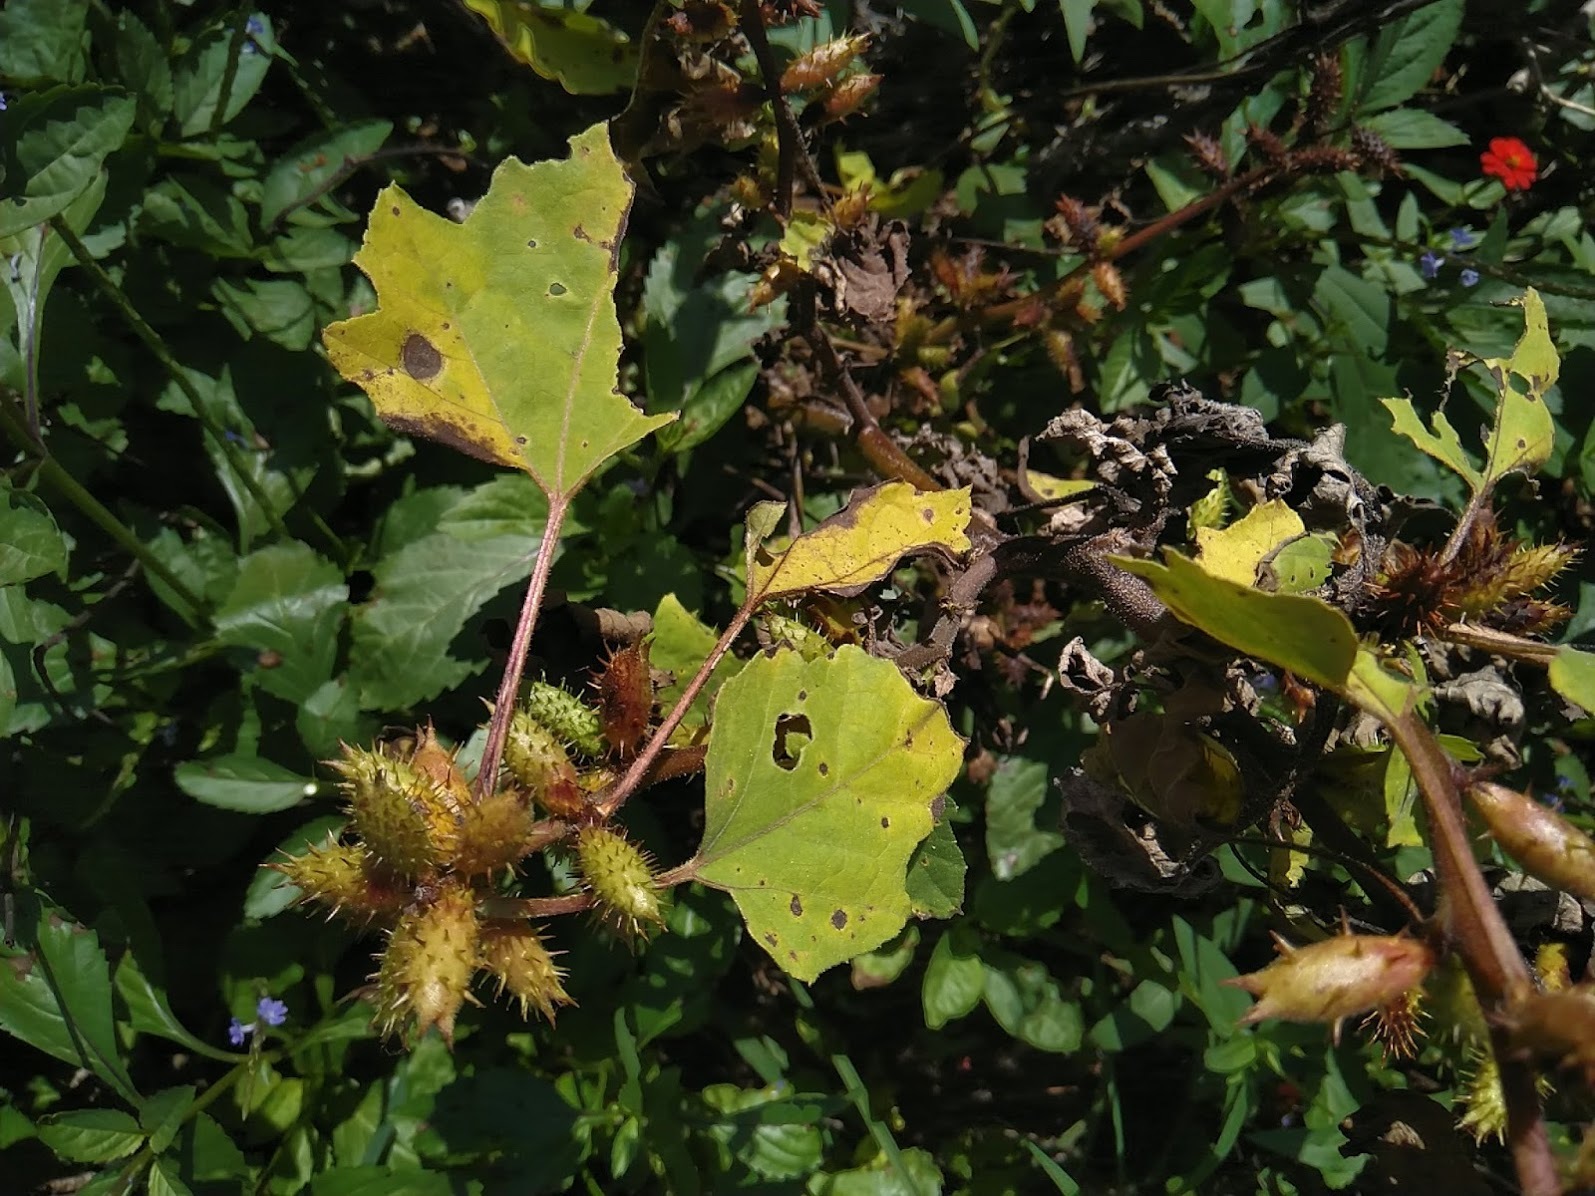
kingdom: Plantae
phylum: Tracheophyta
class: Magnoliopsida
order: Asterales
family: Asteraceae
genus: Xanthium
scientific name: Xanthium strumarium
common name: Rough cocklebur
